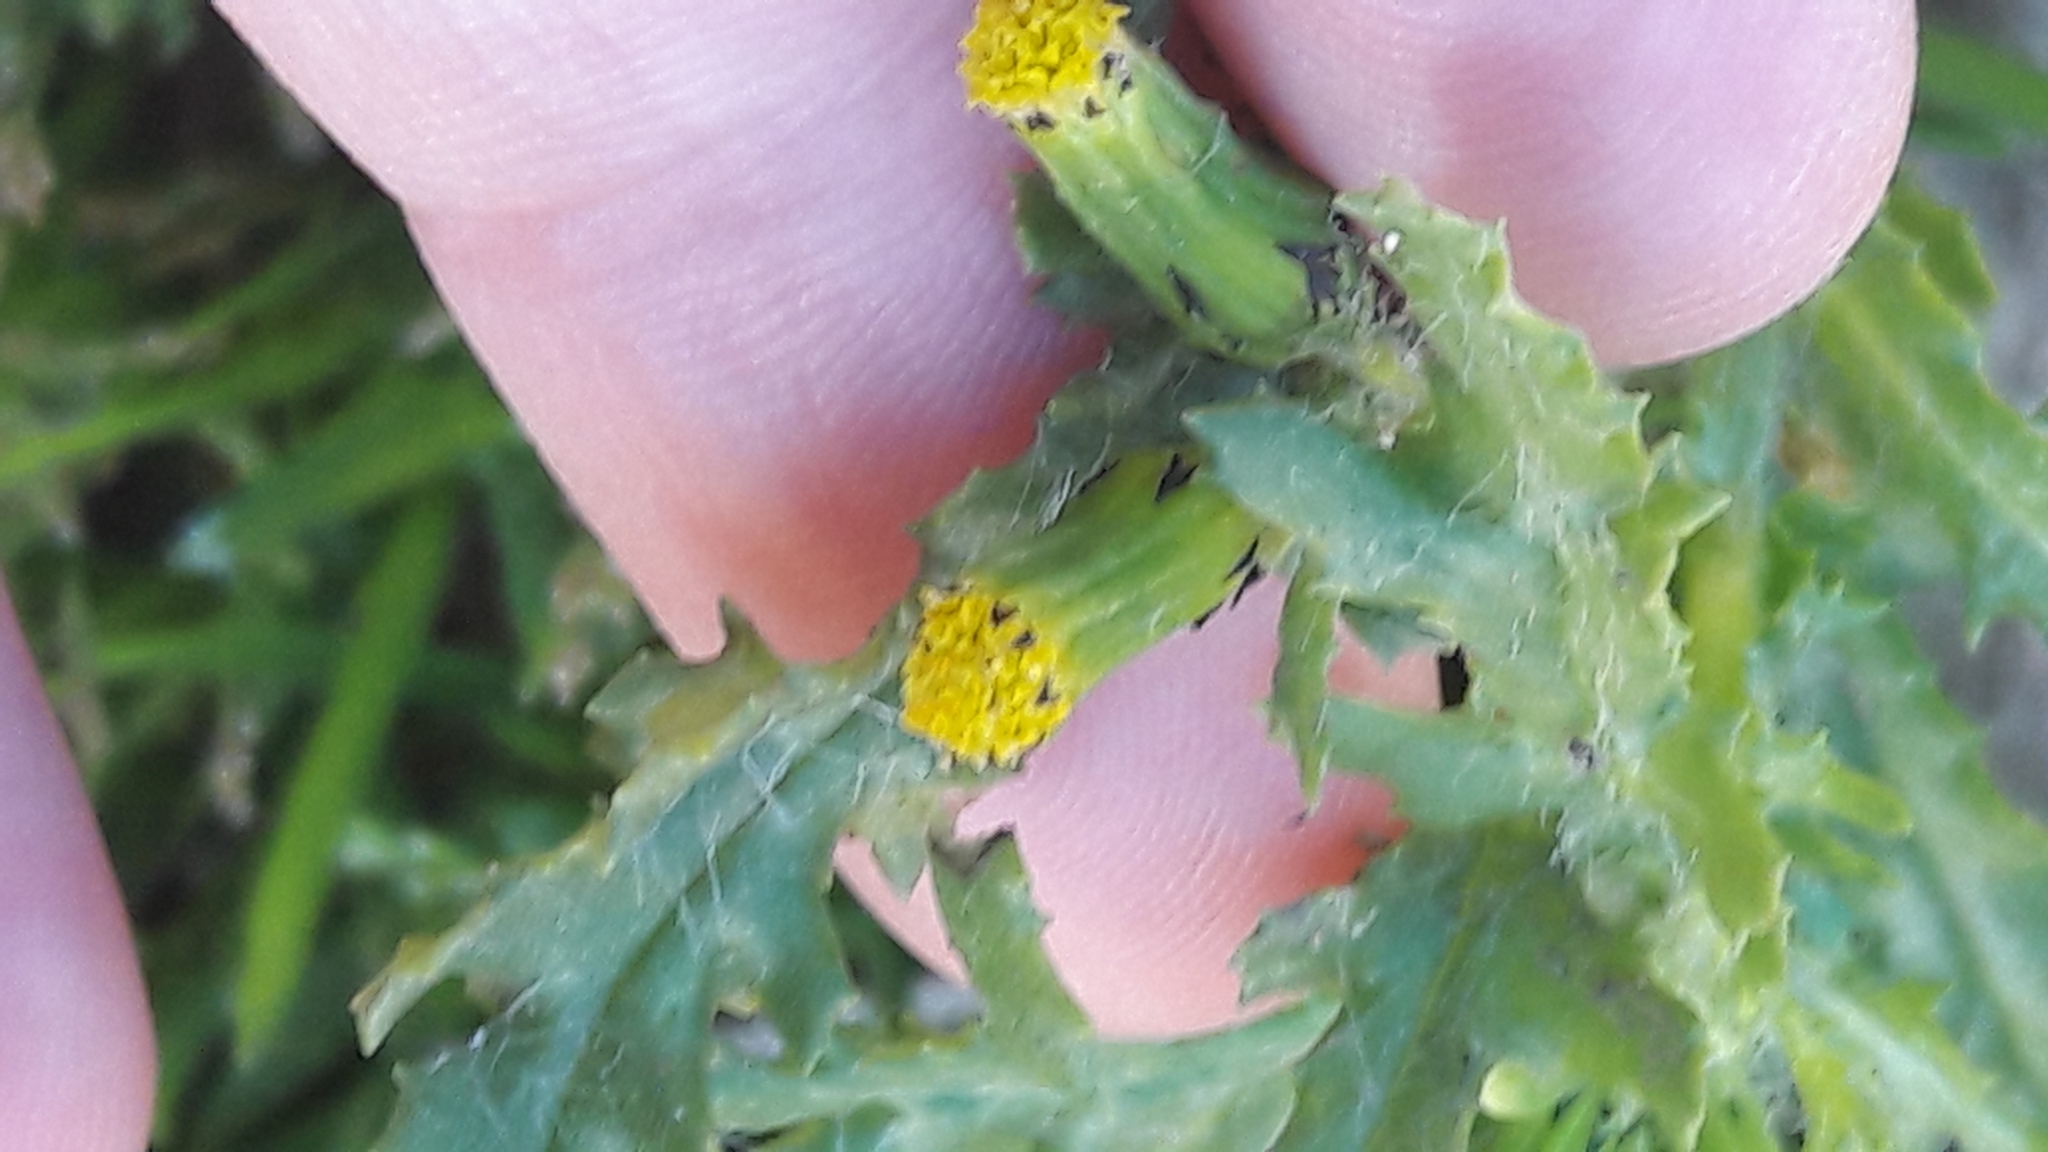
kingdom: Plantae
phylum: Tracheophyta
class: Magnoliopsida
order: Asterales
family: Asteraceae
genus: Senecio
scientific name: Senecio vulgaris
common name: Old-man-in-the-spring
